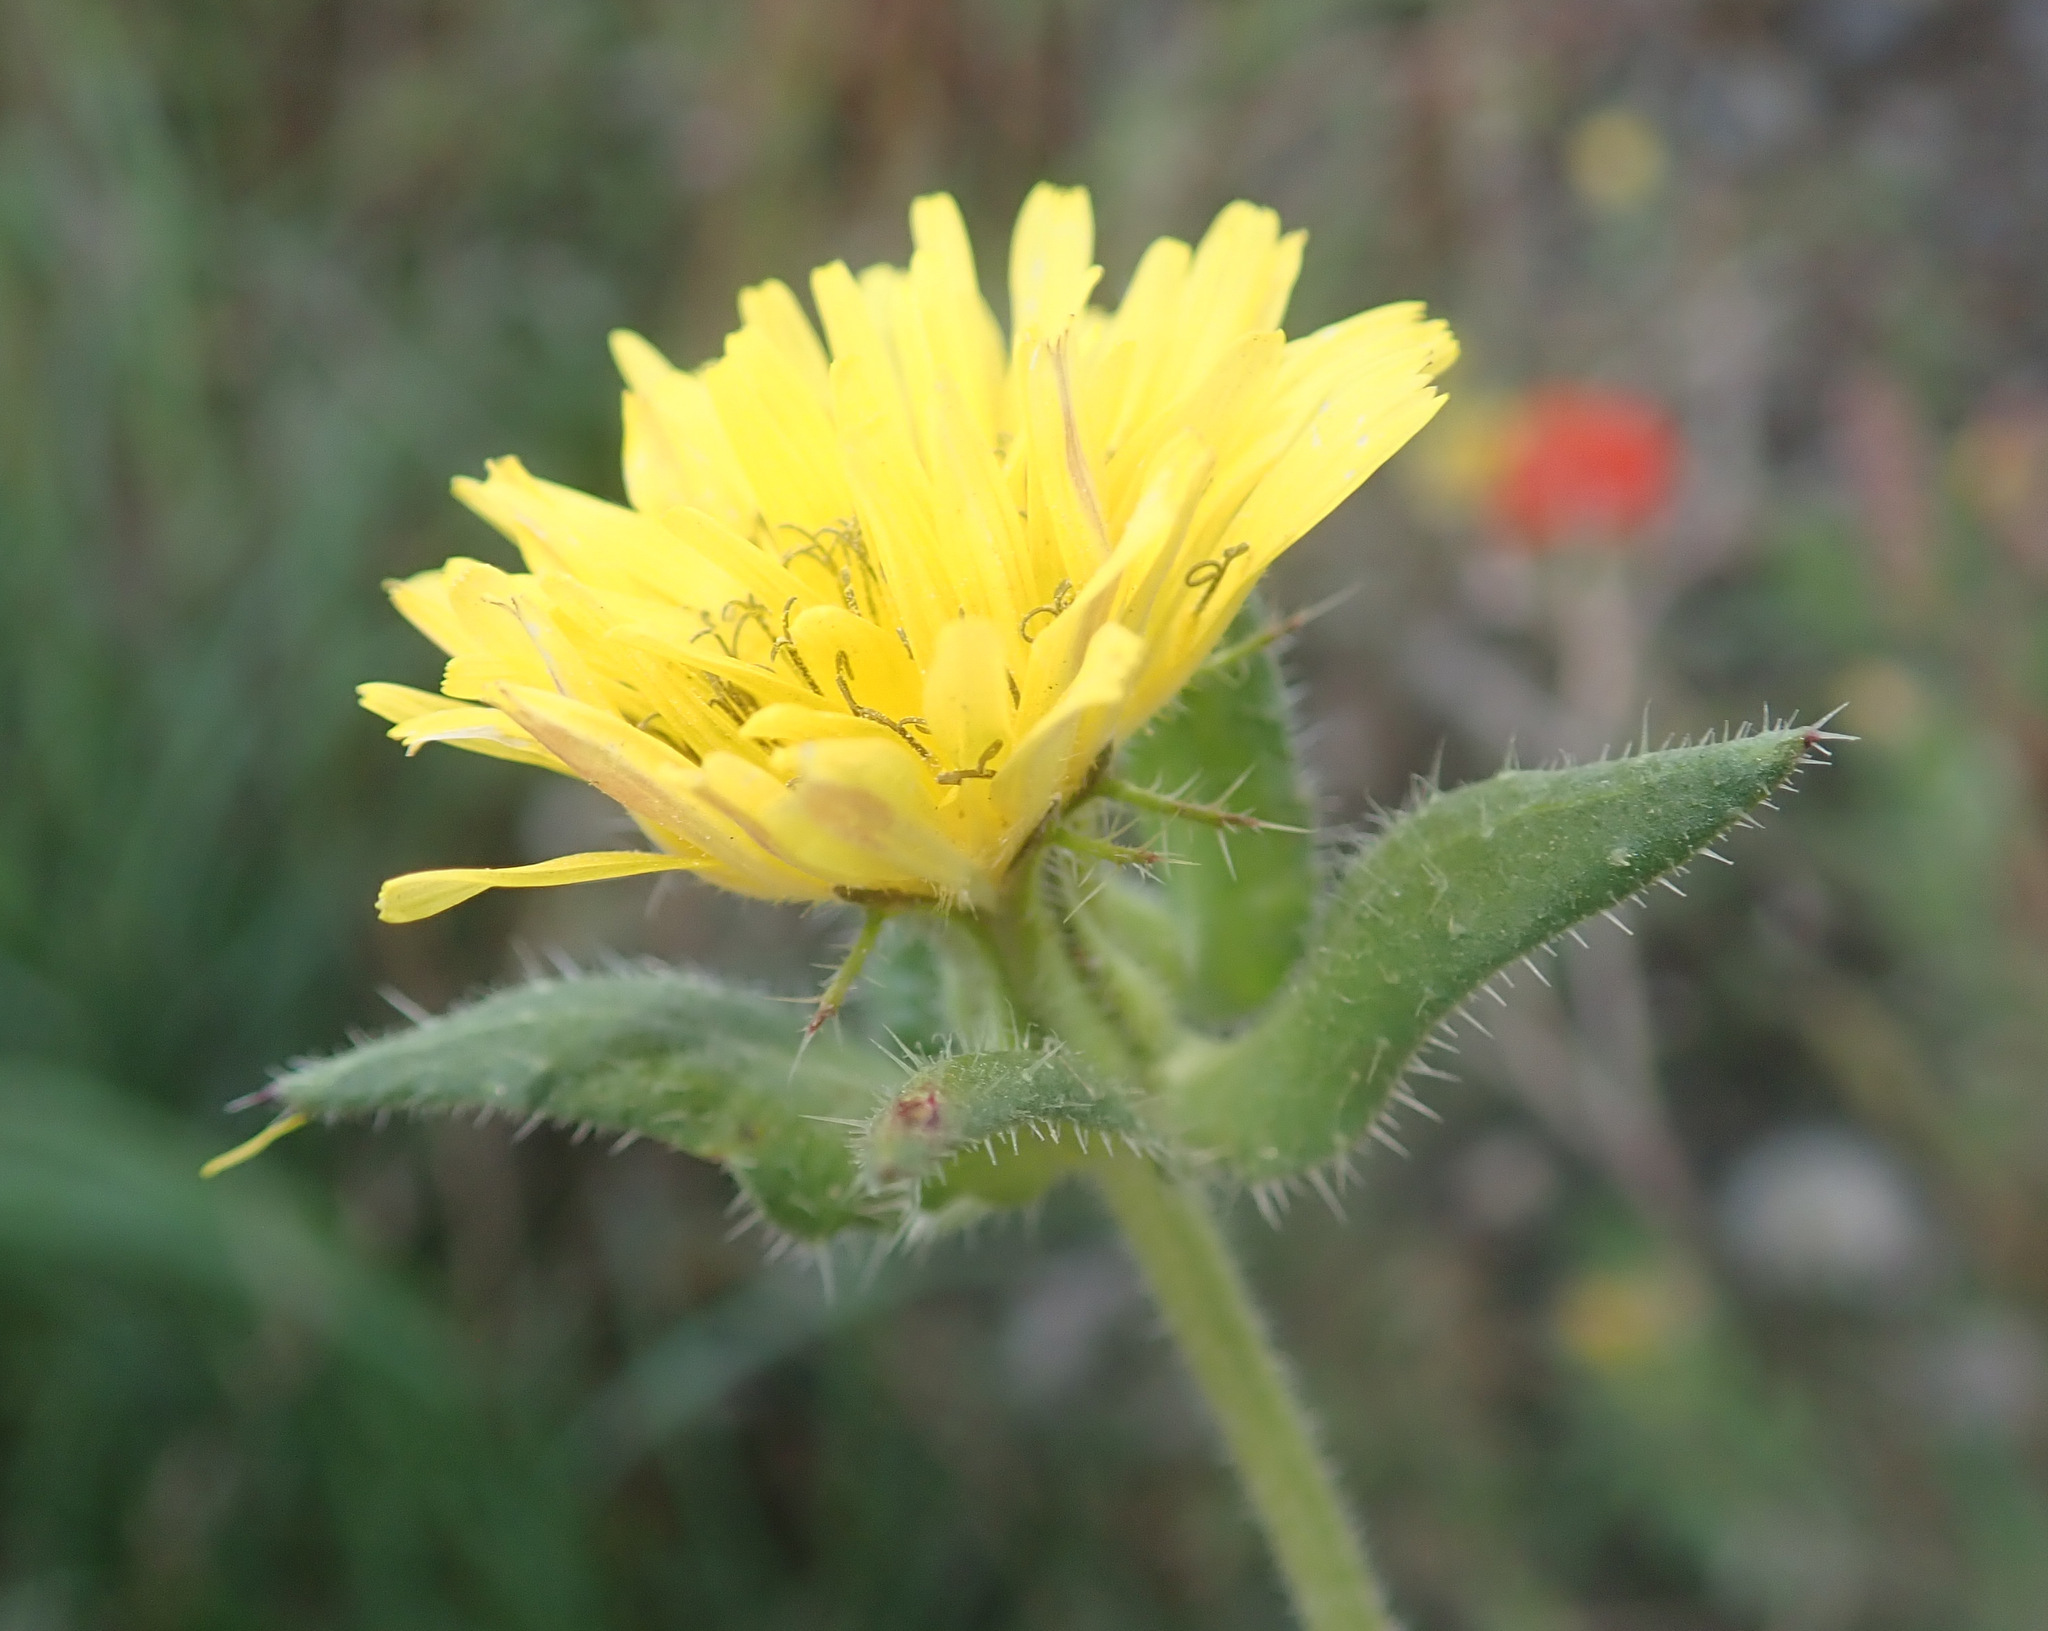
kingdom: Plantae
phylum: Tracheophyta
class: Magnoliopsida
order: Asterales
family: Asteraceae
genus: Helminthotheca
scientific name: Helminthotheca echioides
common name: Ox-tongue
